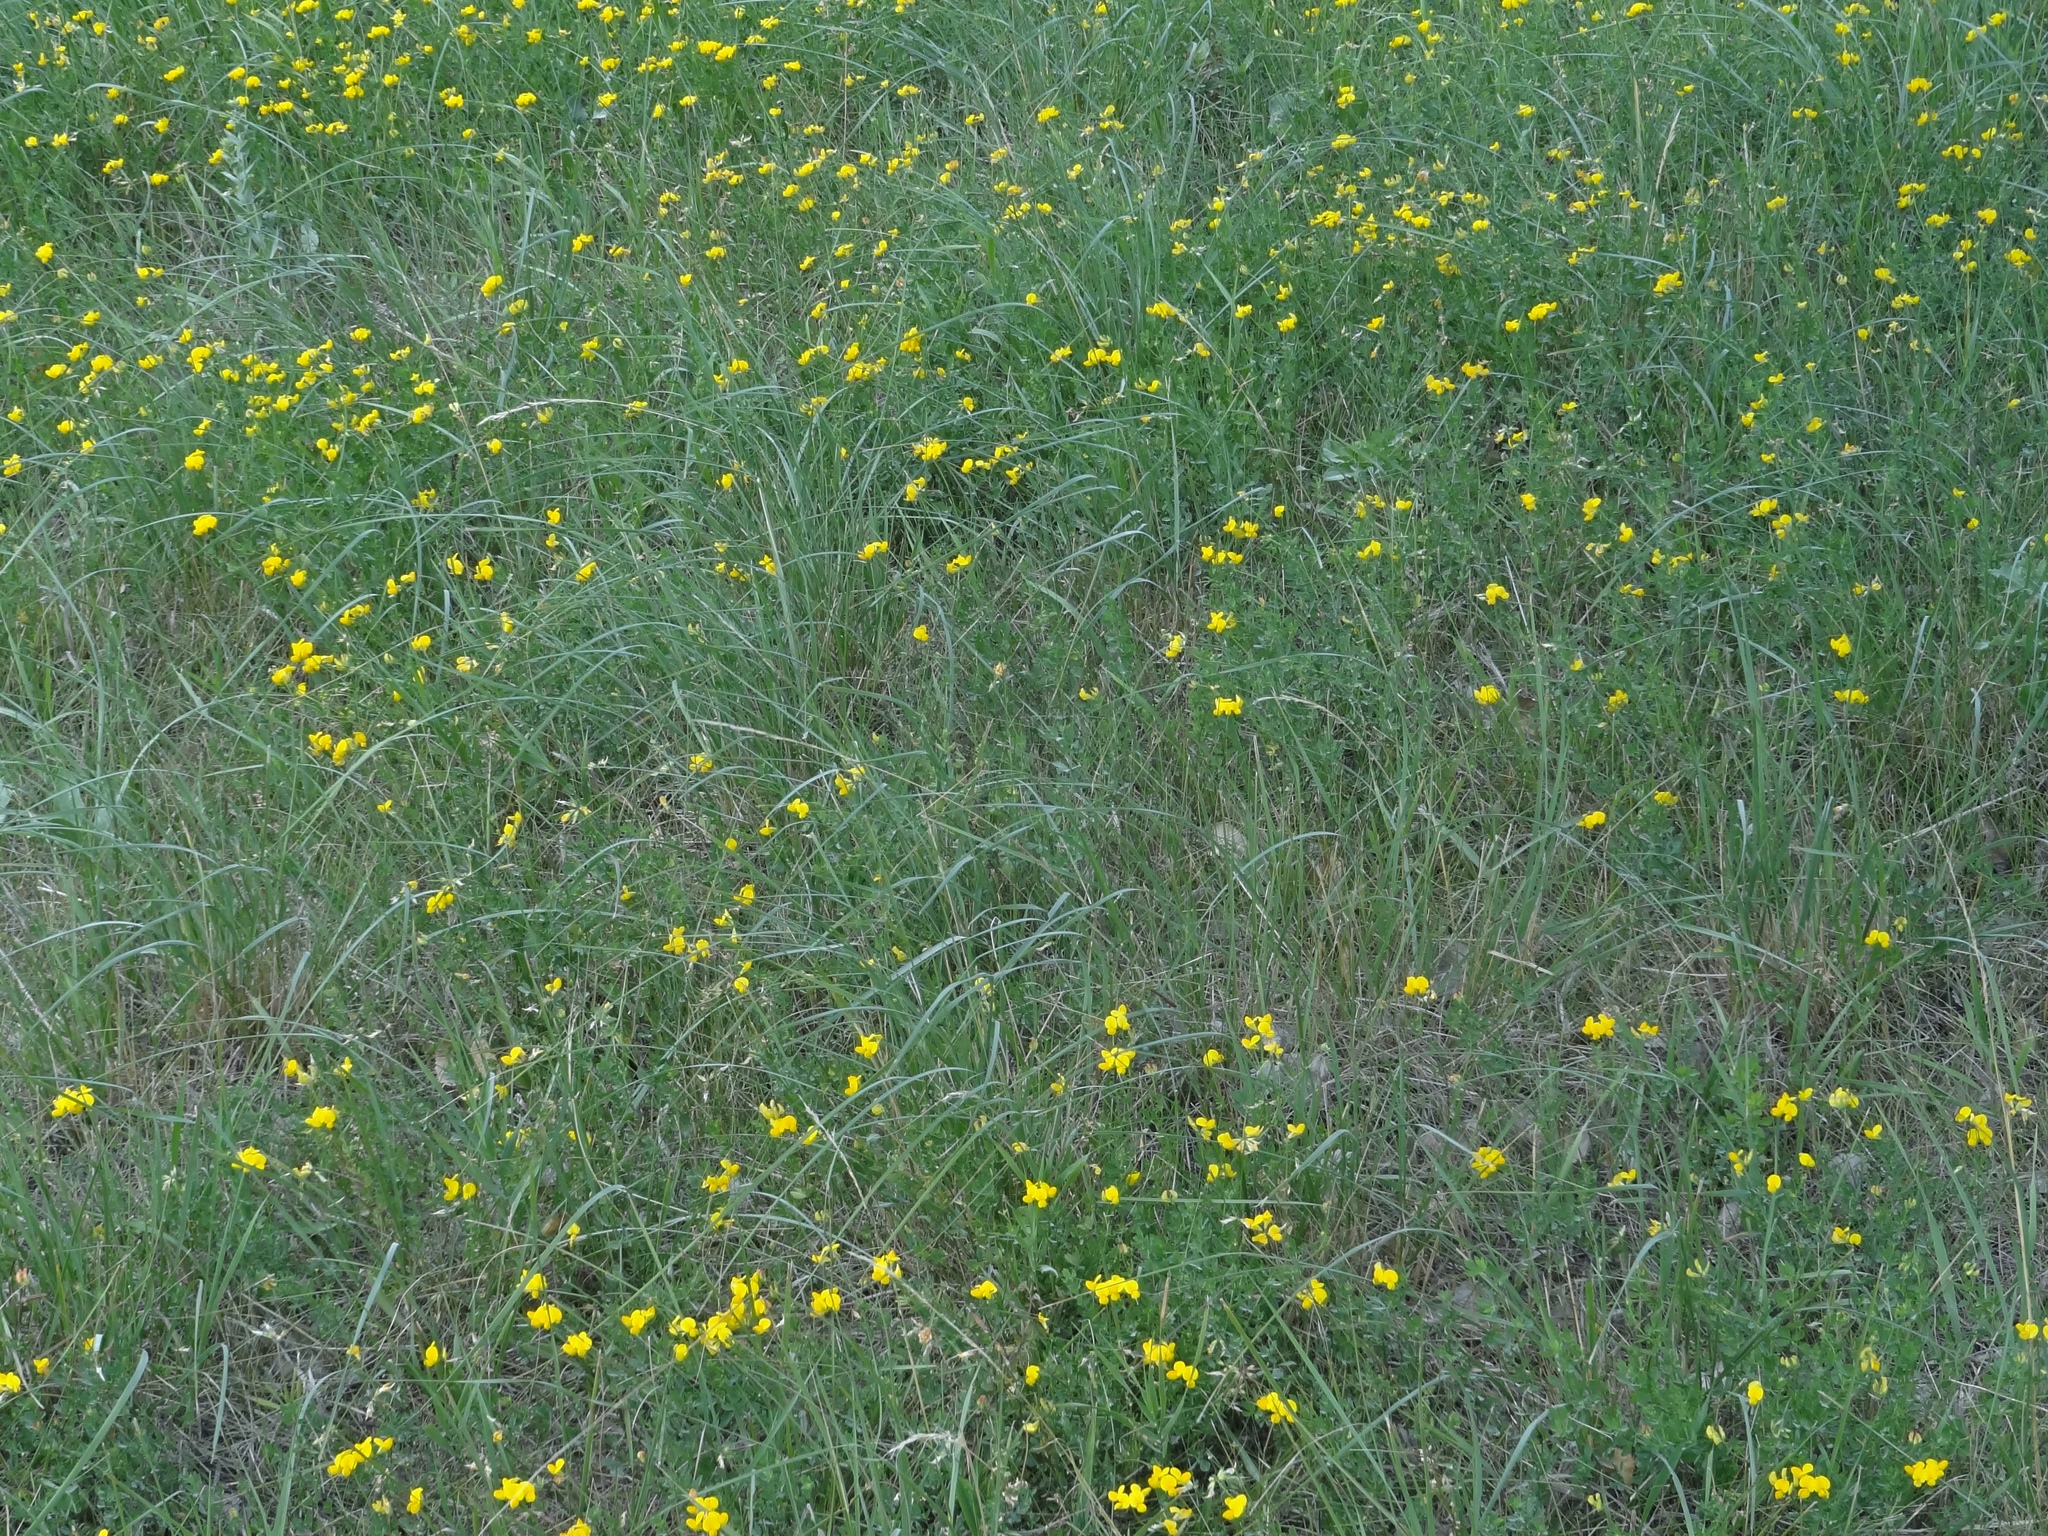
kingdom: Plantae
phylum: Tracheophyta
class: Magnoliopsida
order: Fabales
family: Fabaceae
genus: Lotus
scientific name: Lotus corniculatus
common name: Common bird's-foot-trefoil
